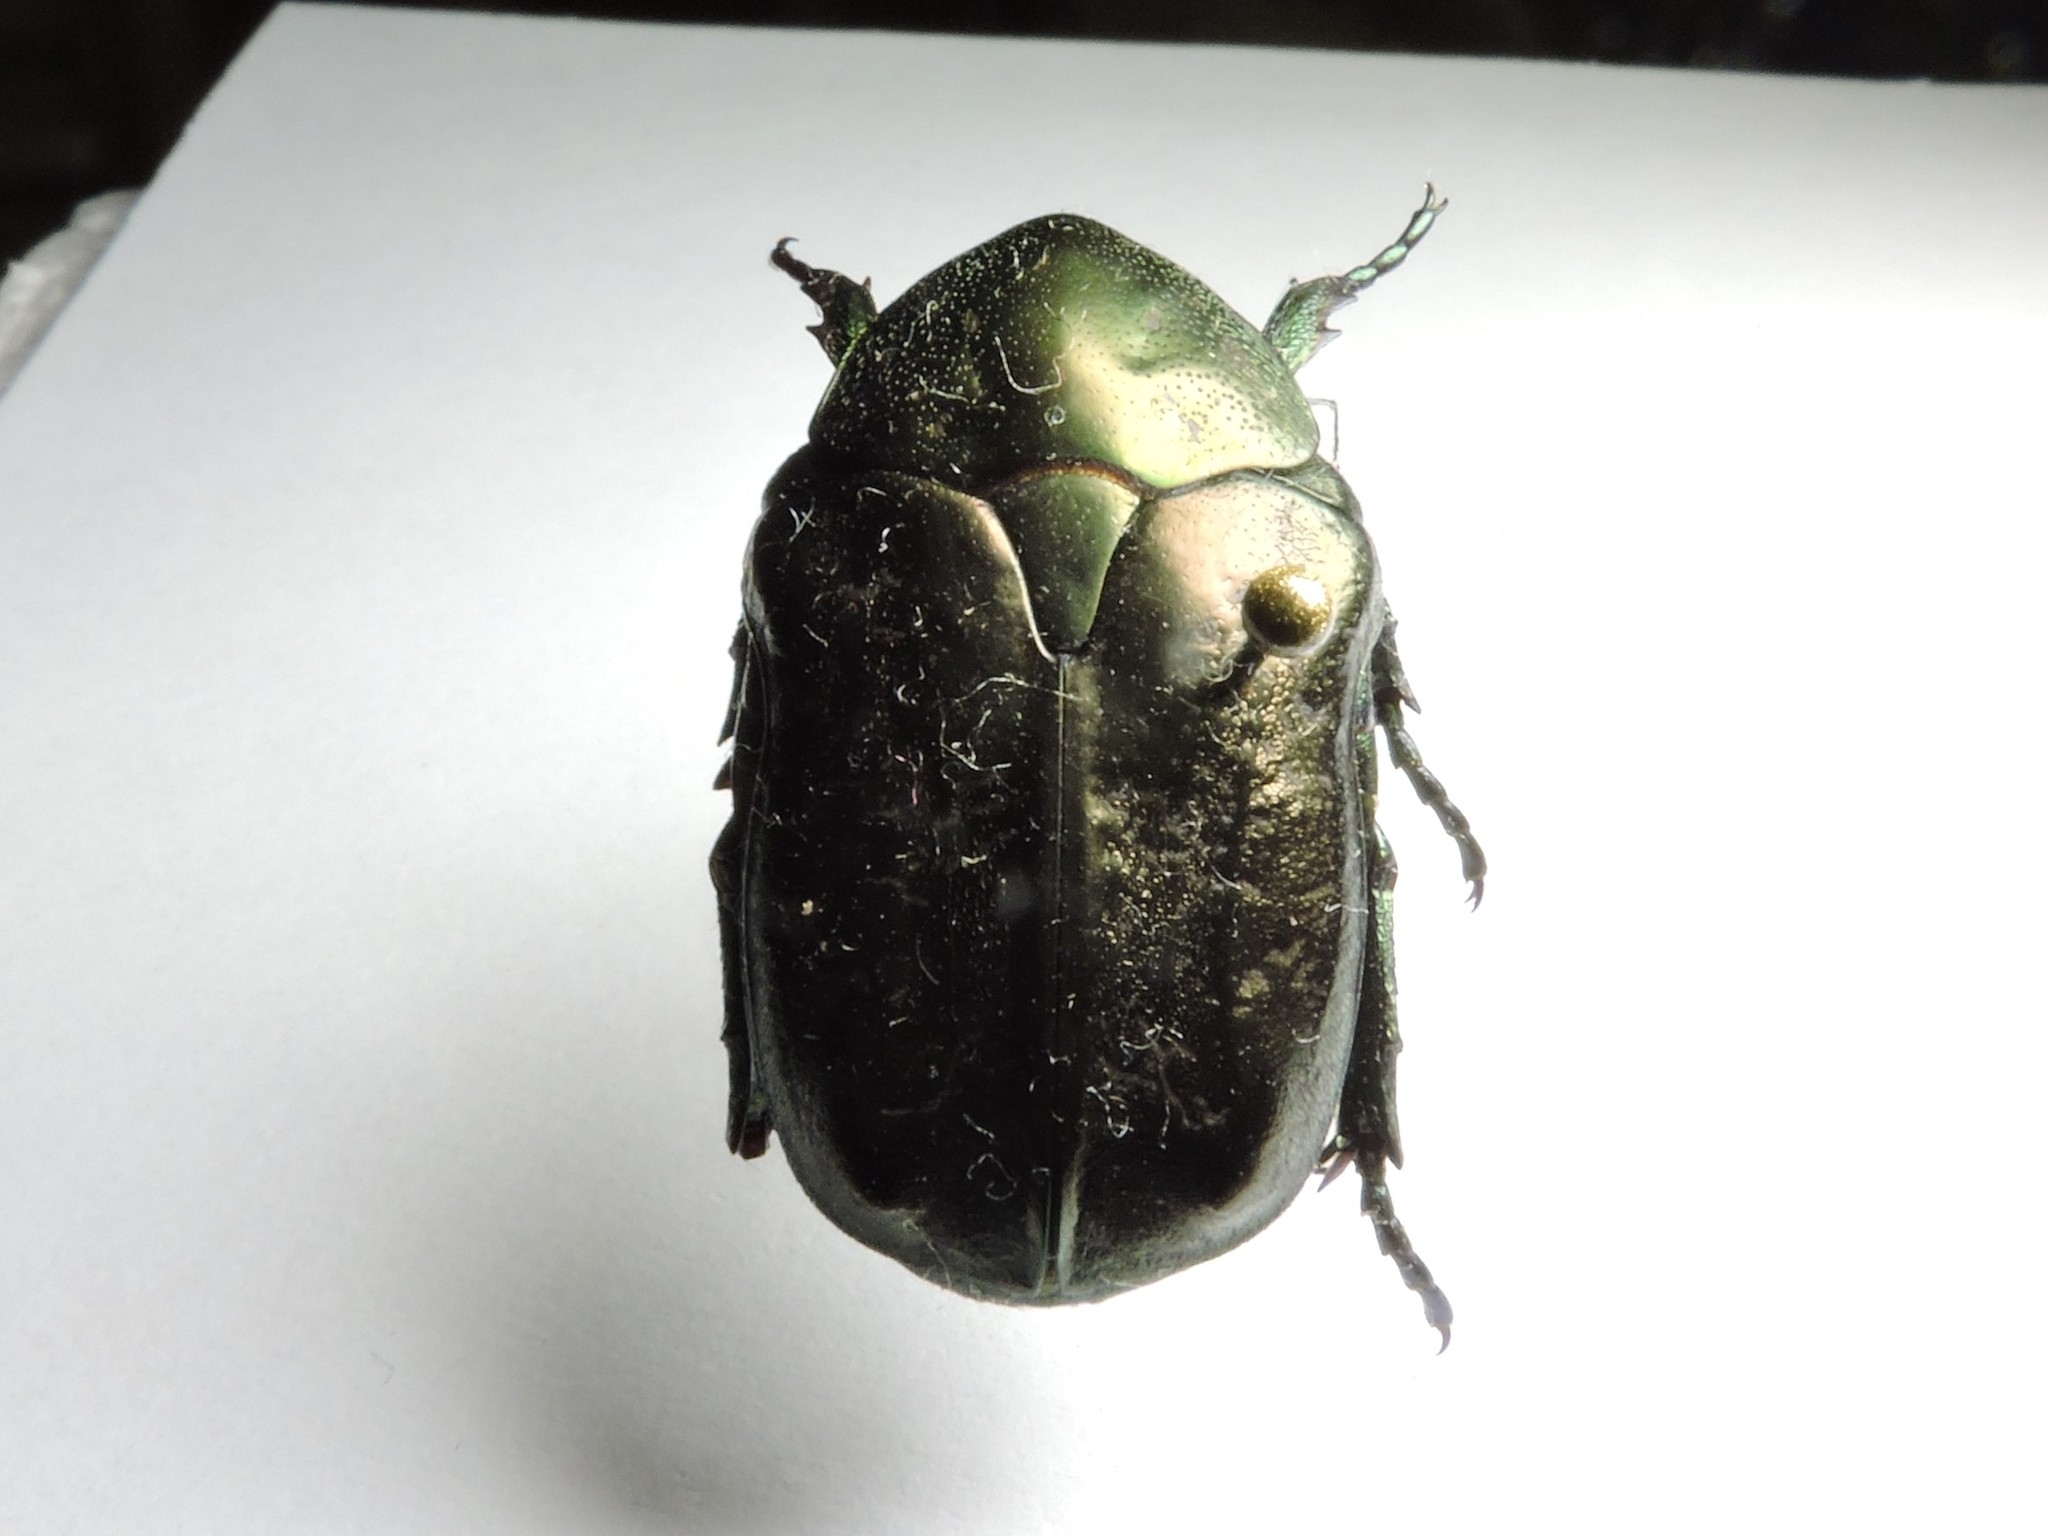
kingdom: Animalia
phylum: Arthropoda
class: Insecta
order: Coleoptera
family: Scarabaeidae
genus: Protaetia
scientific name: Protaetia marmorata
